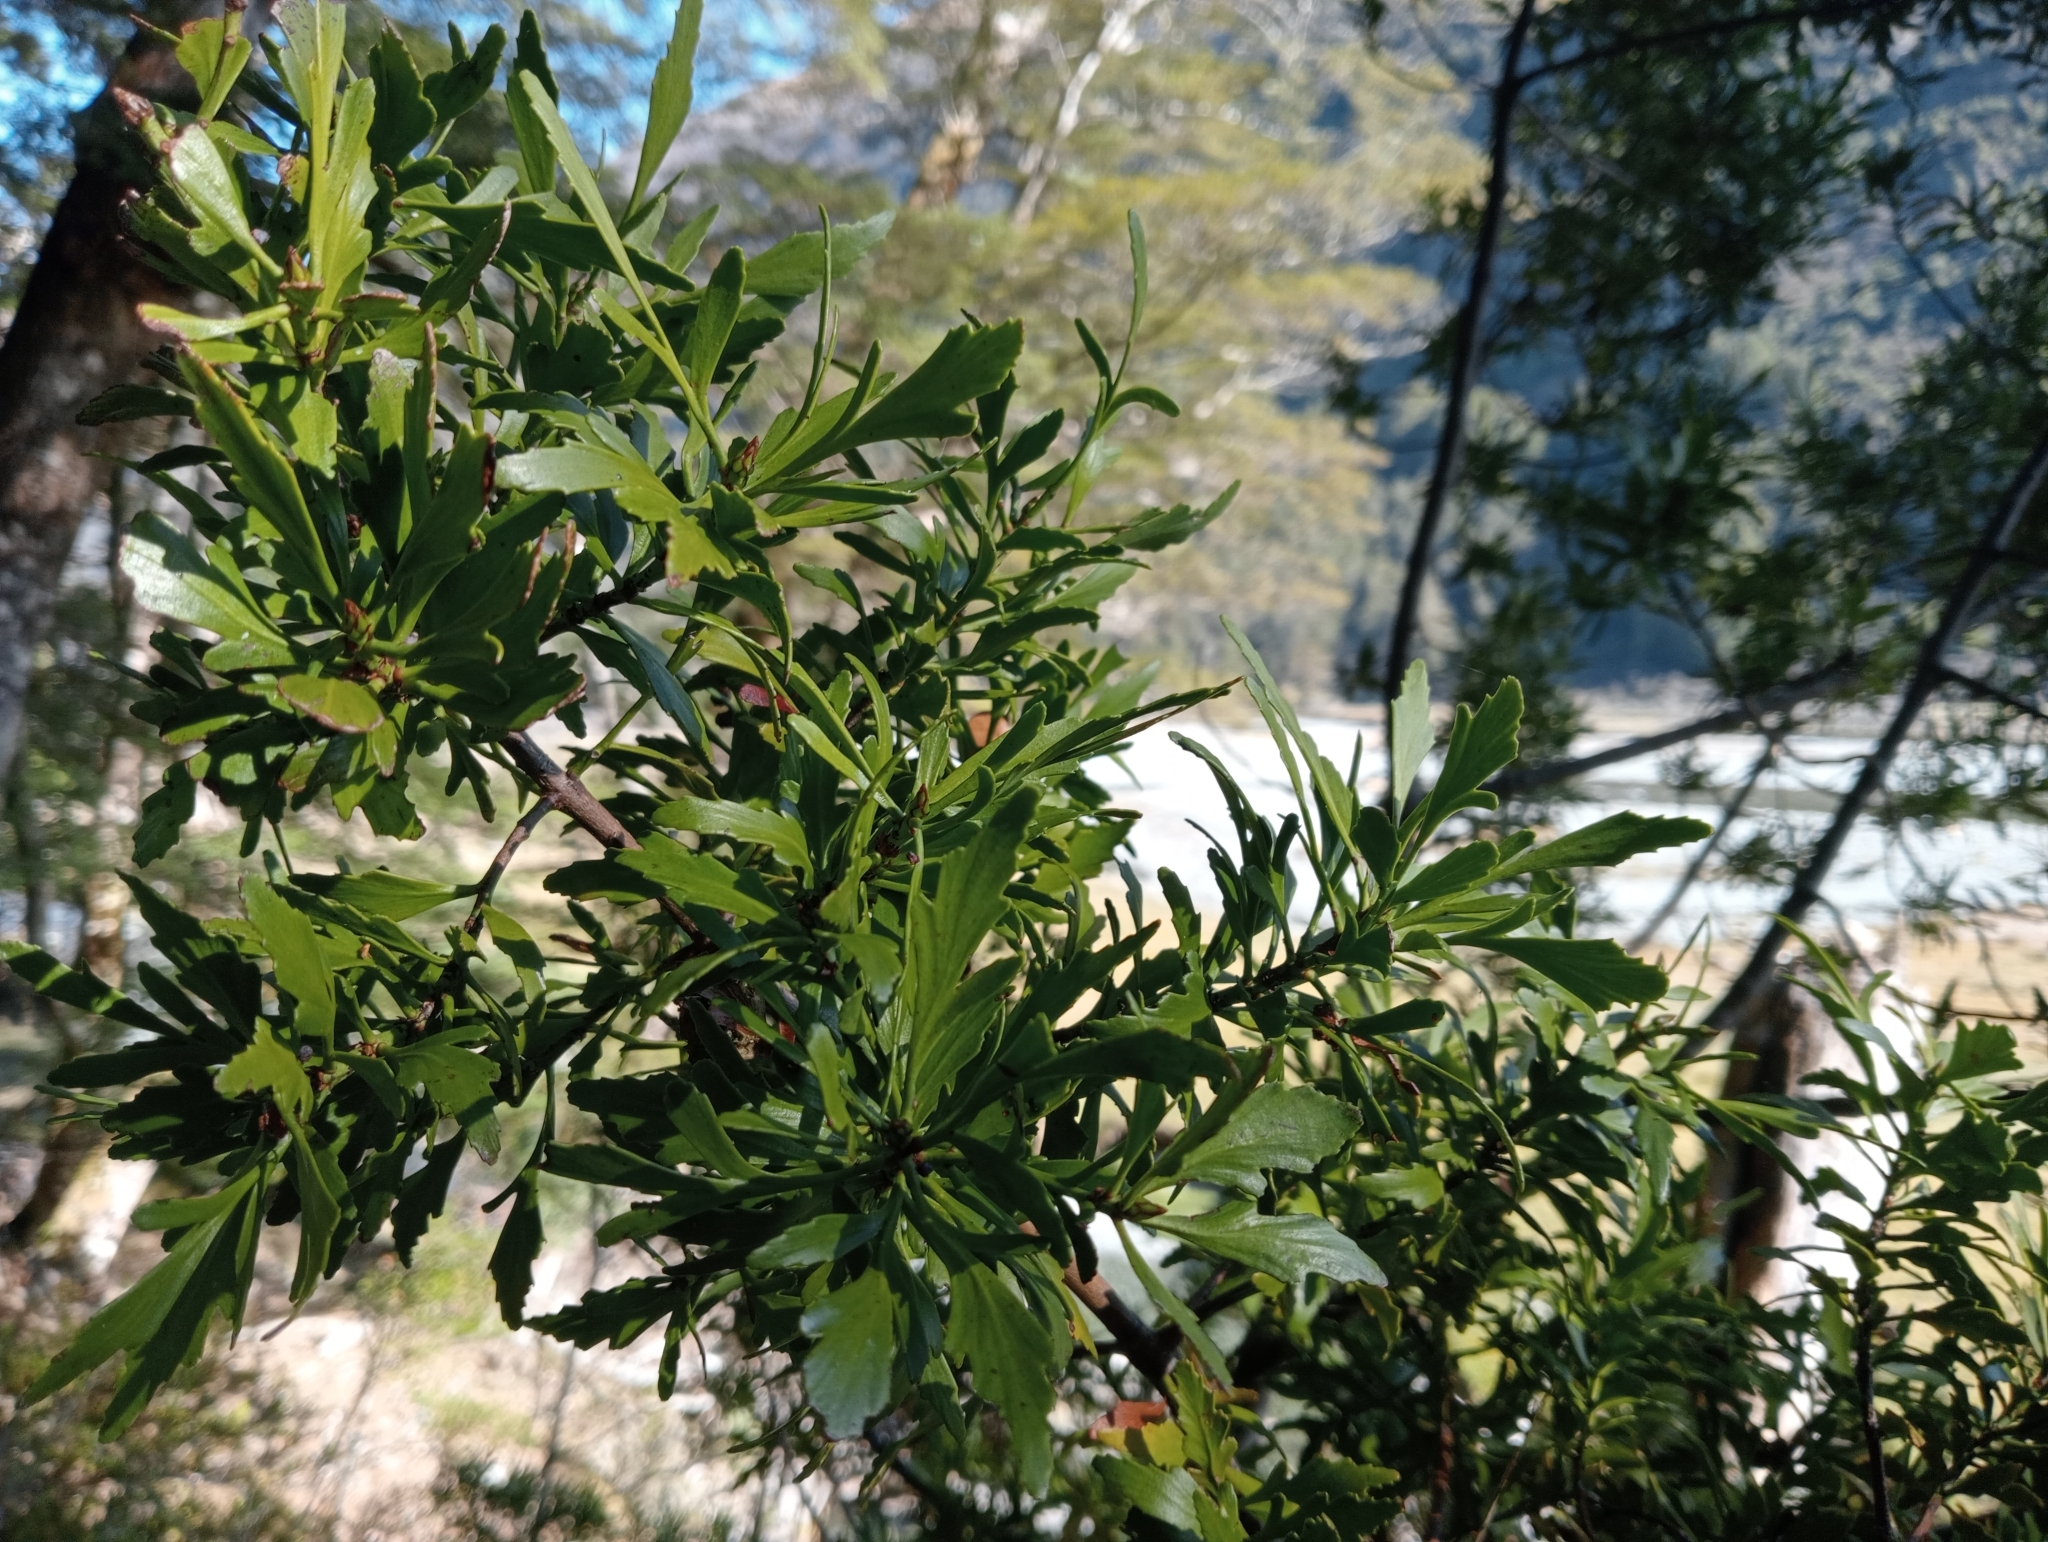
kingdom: Plantae
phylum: Tracheophyta
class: Pinopsida
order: Pinales
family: Phyllocladaceae
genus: Phyllocladus
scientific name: Phyllocladus trichomanoides
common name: Celery pine
